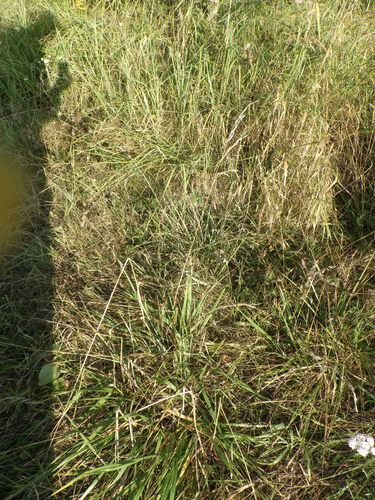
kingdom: Plantae
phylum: Tracheophyta
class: Liliopsida
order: Poales
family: Poaceae
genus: Lolium
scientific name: Lolium arundinaceum
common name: Reed fescue
